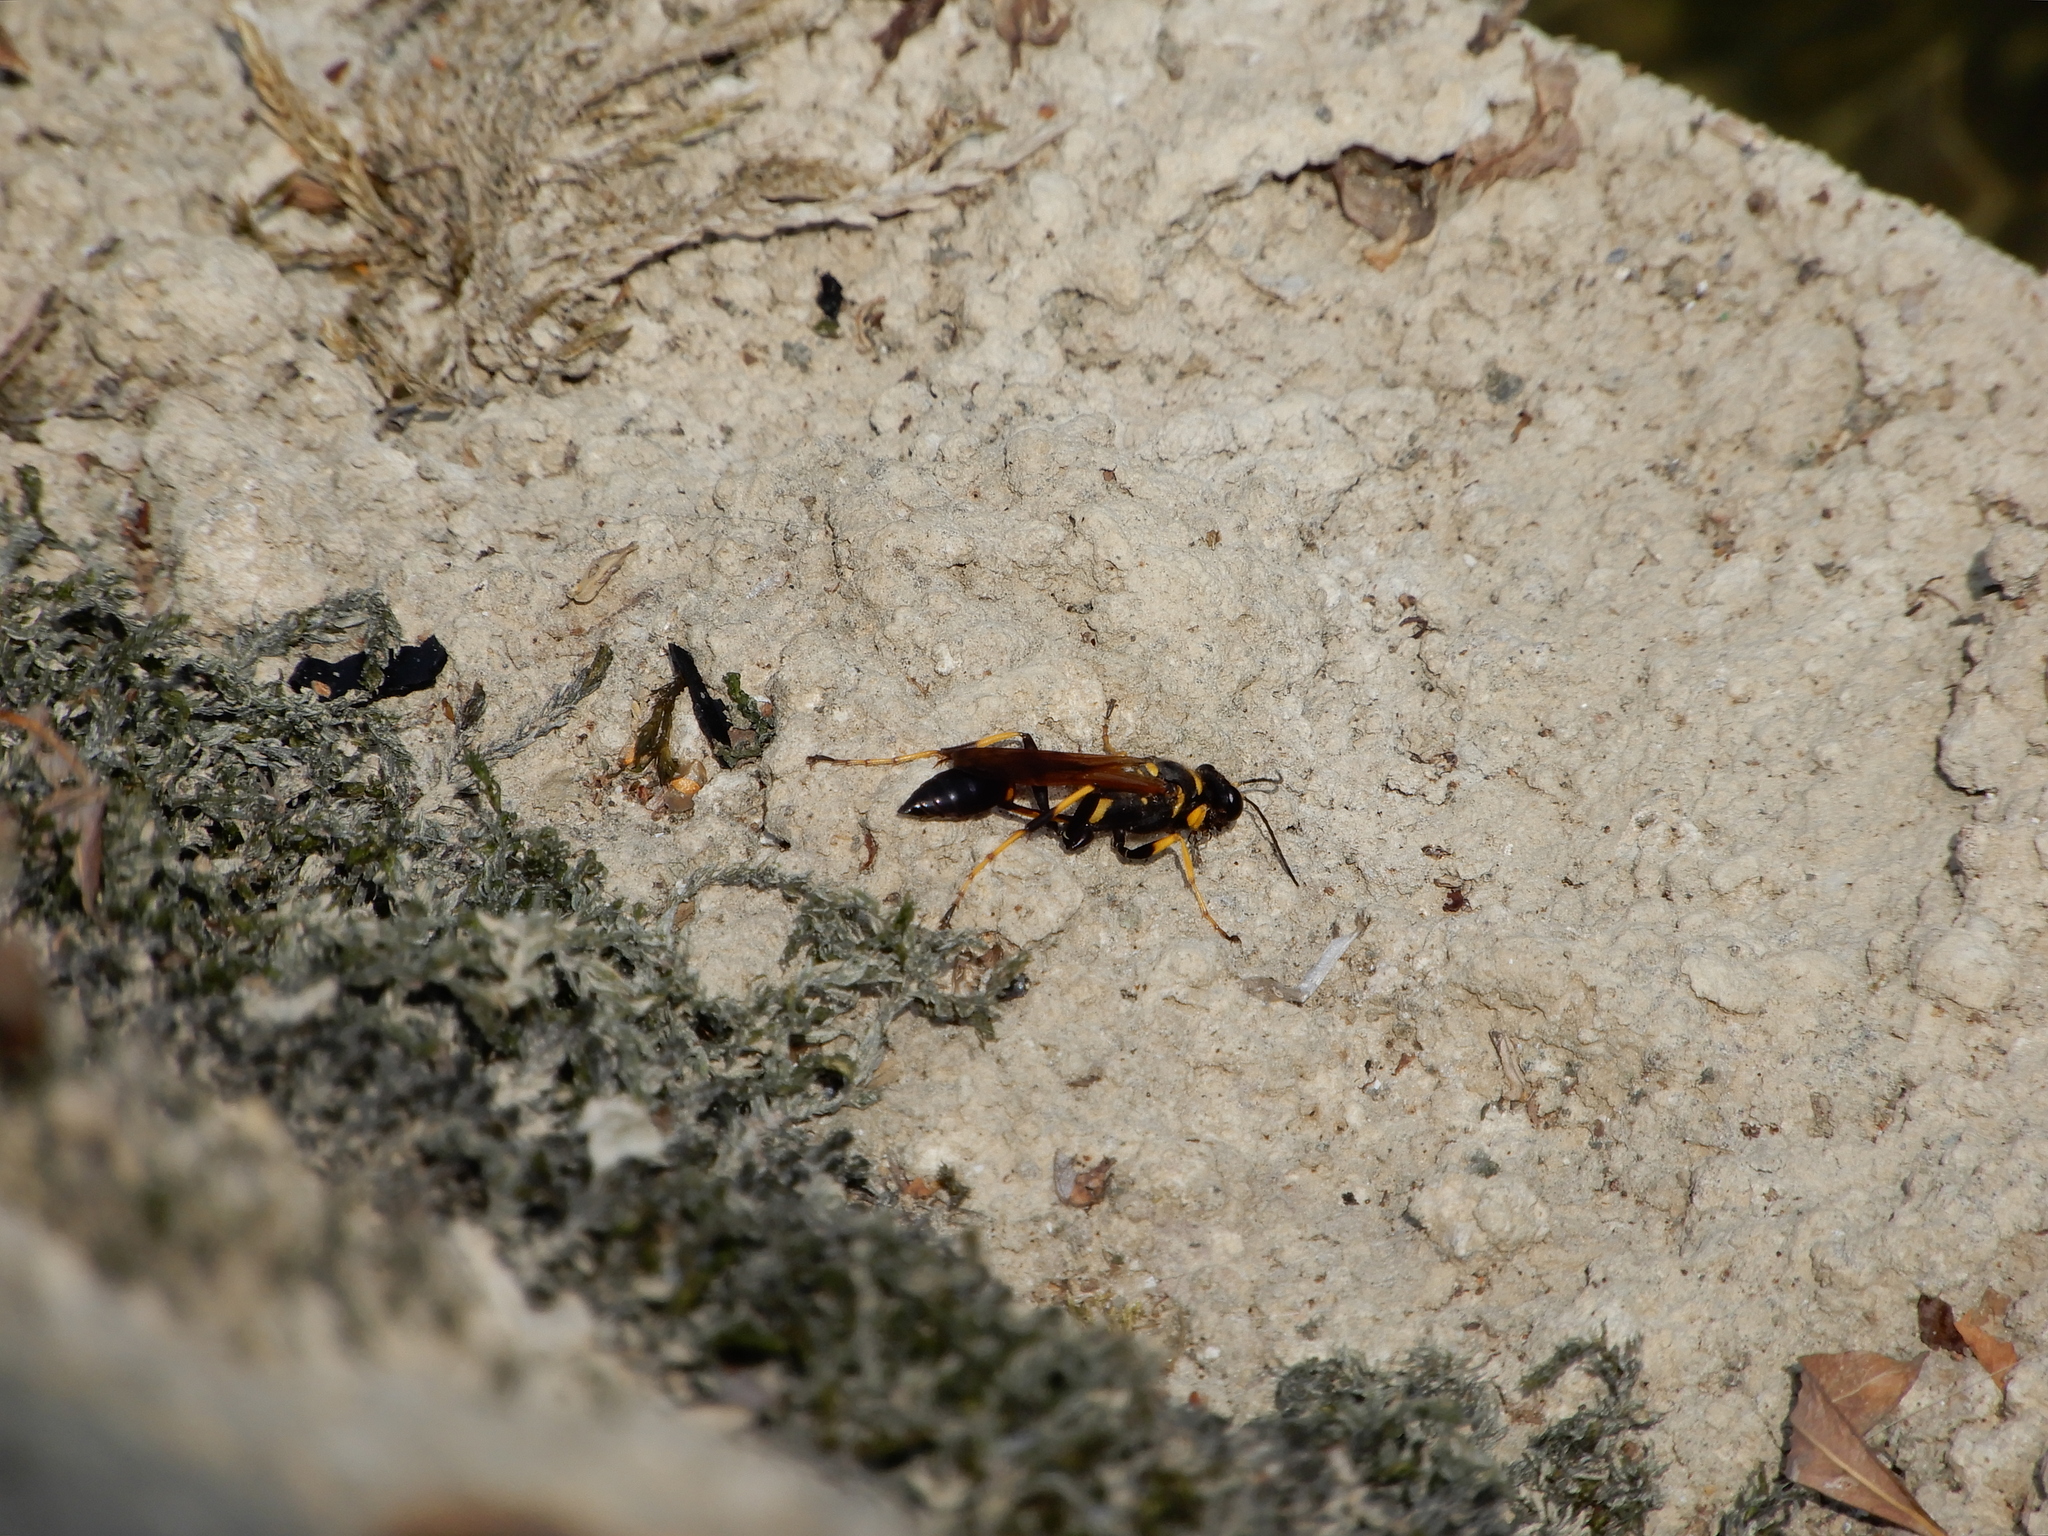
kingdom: Animalia
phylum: Arthropoda
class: Insecta
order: Hymenoptera
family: Sphecidae
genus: Sceliphron
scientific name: Sceliphron caementarium
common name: Mud dauber
